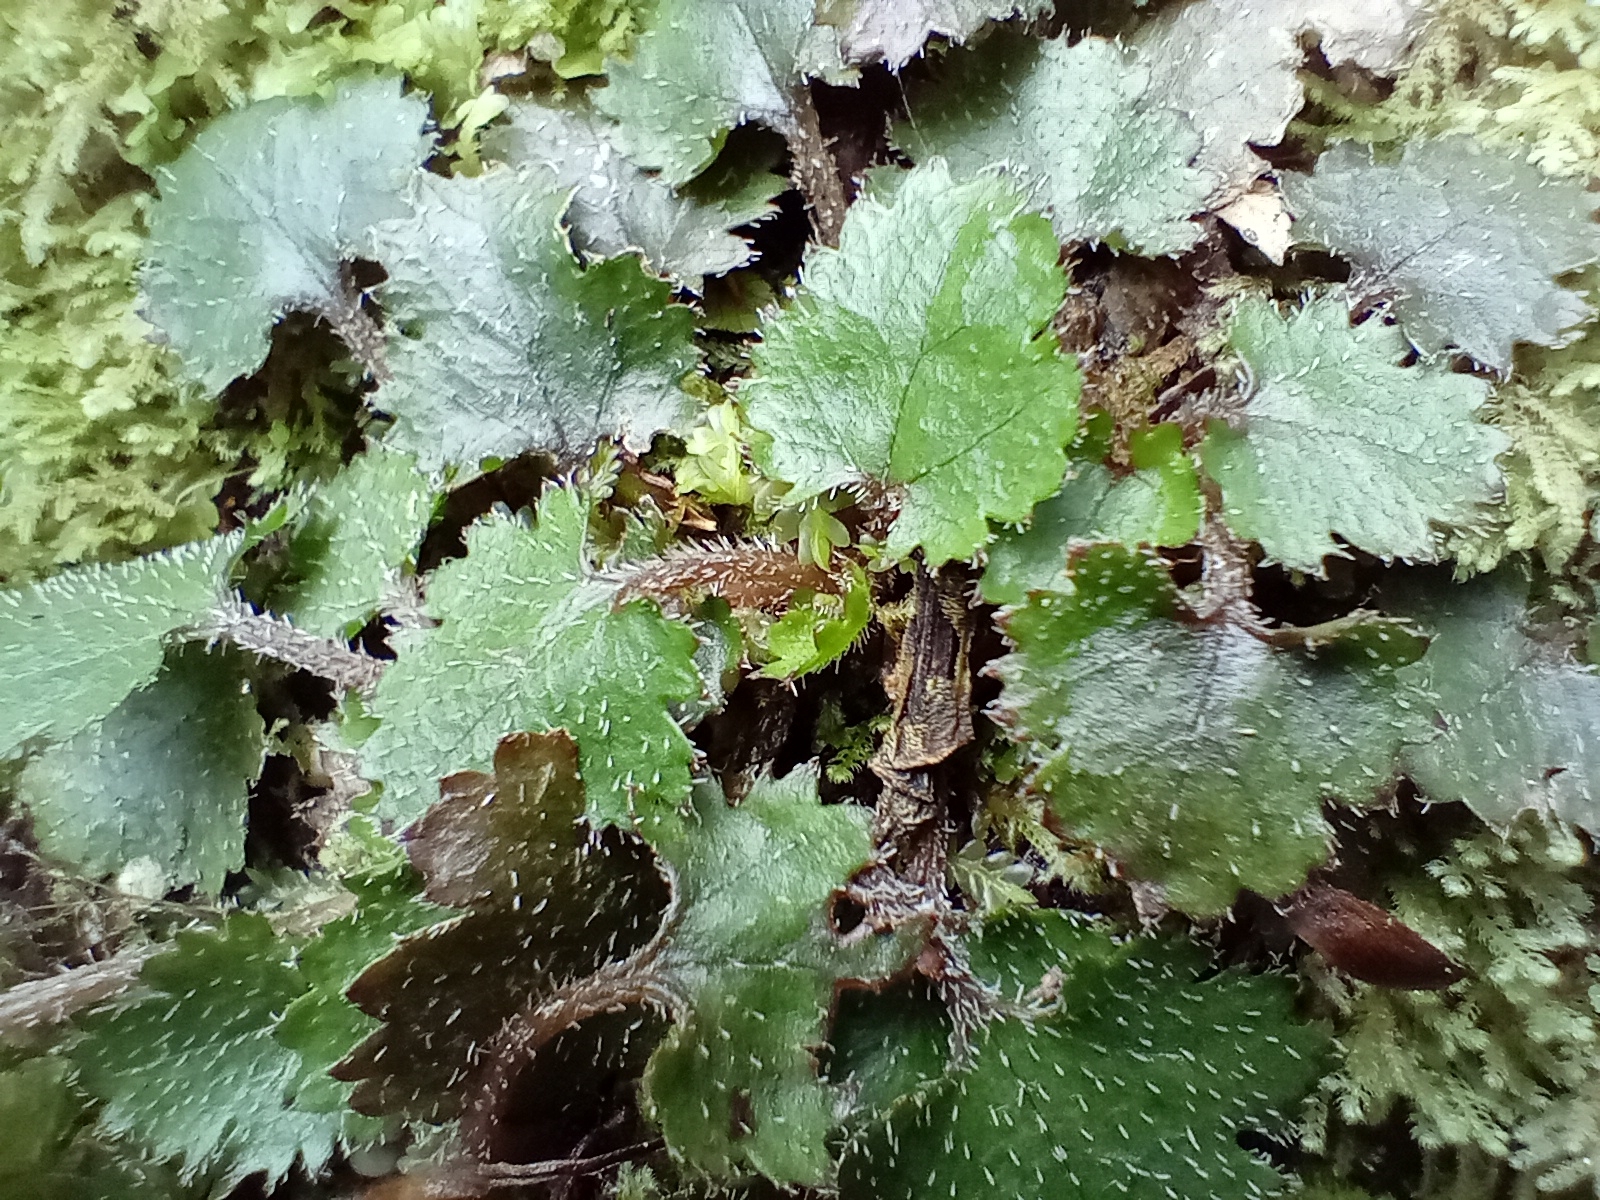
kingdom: Plantae
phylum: Tracheophyta
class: Magnoliopsida
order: Gunnerales
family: Gunneraceae
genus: Gunnera
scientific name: Gunnera monoica
